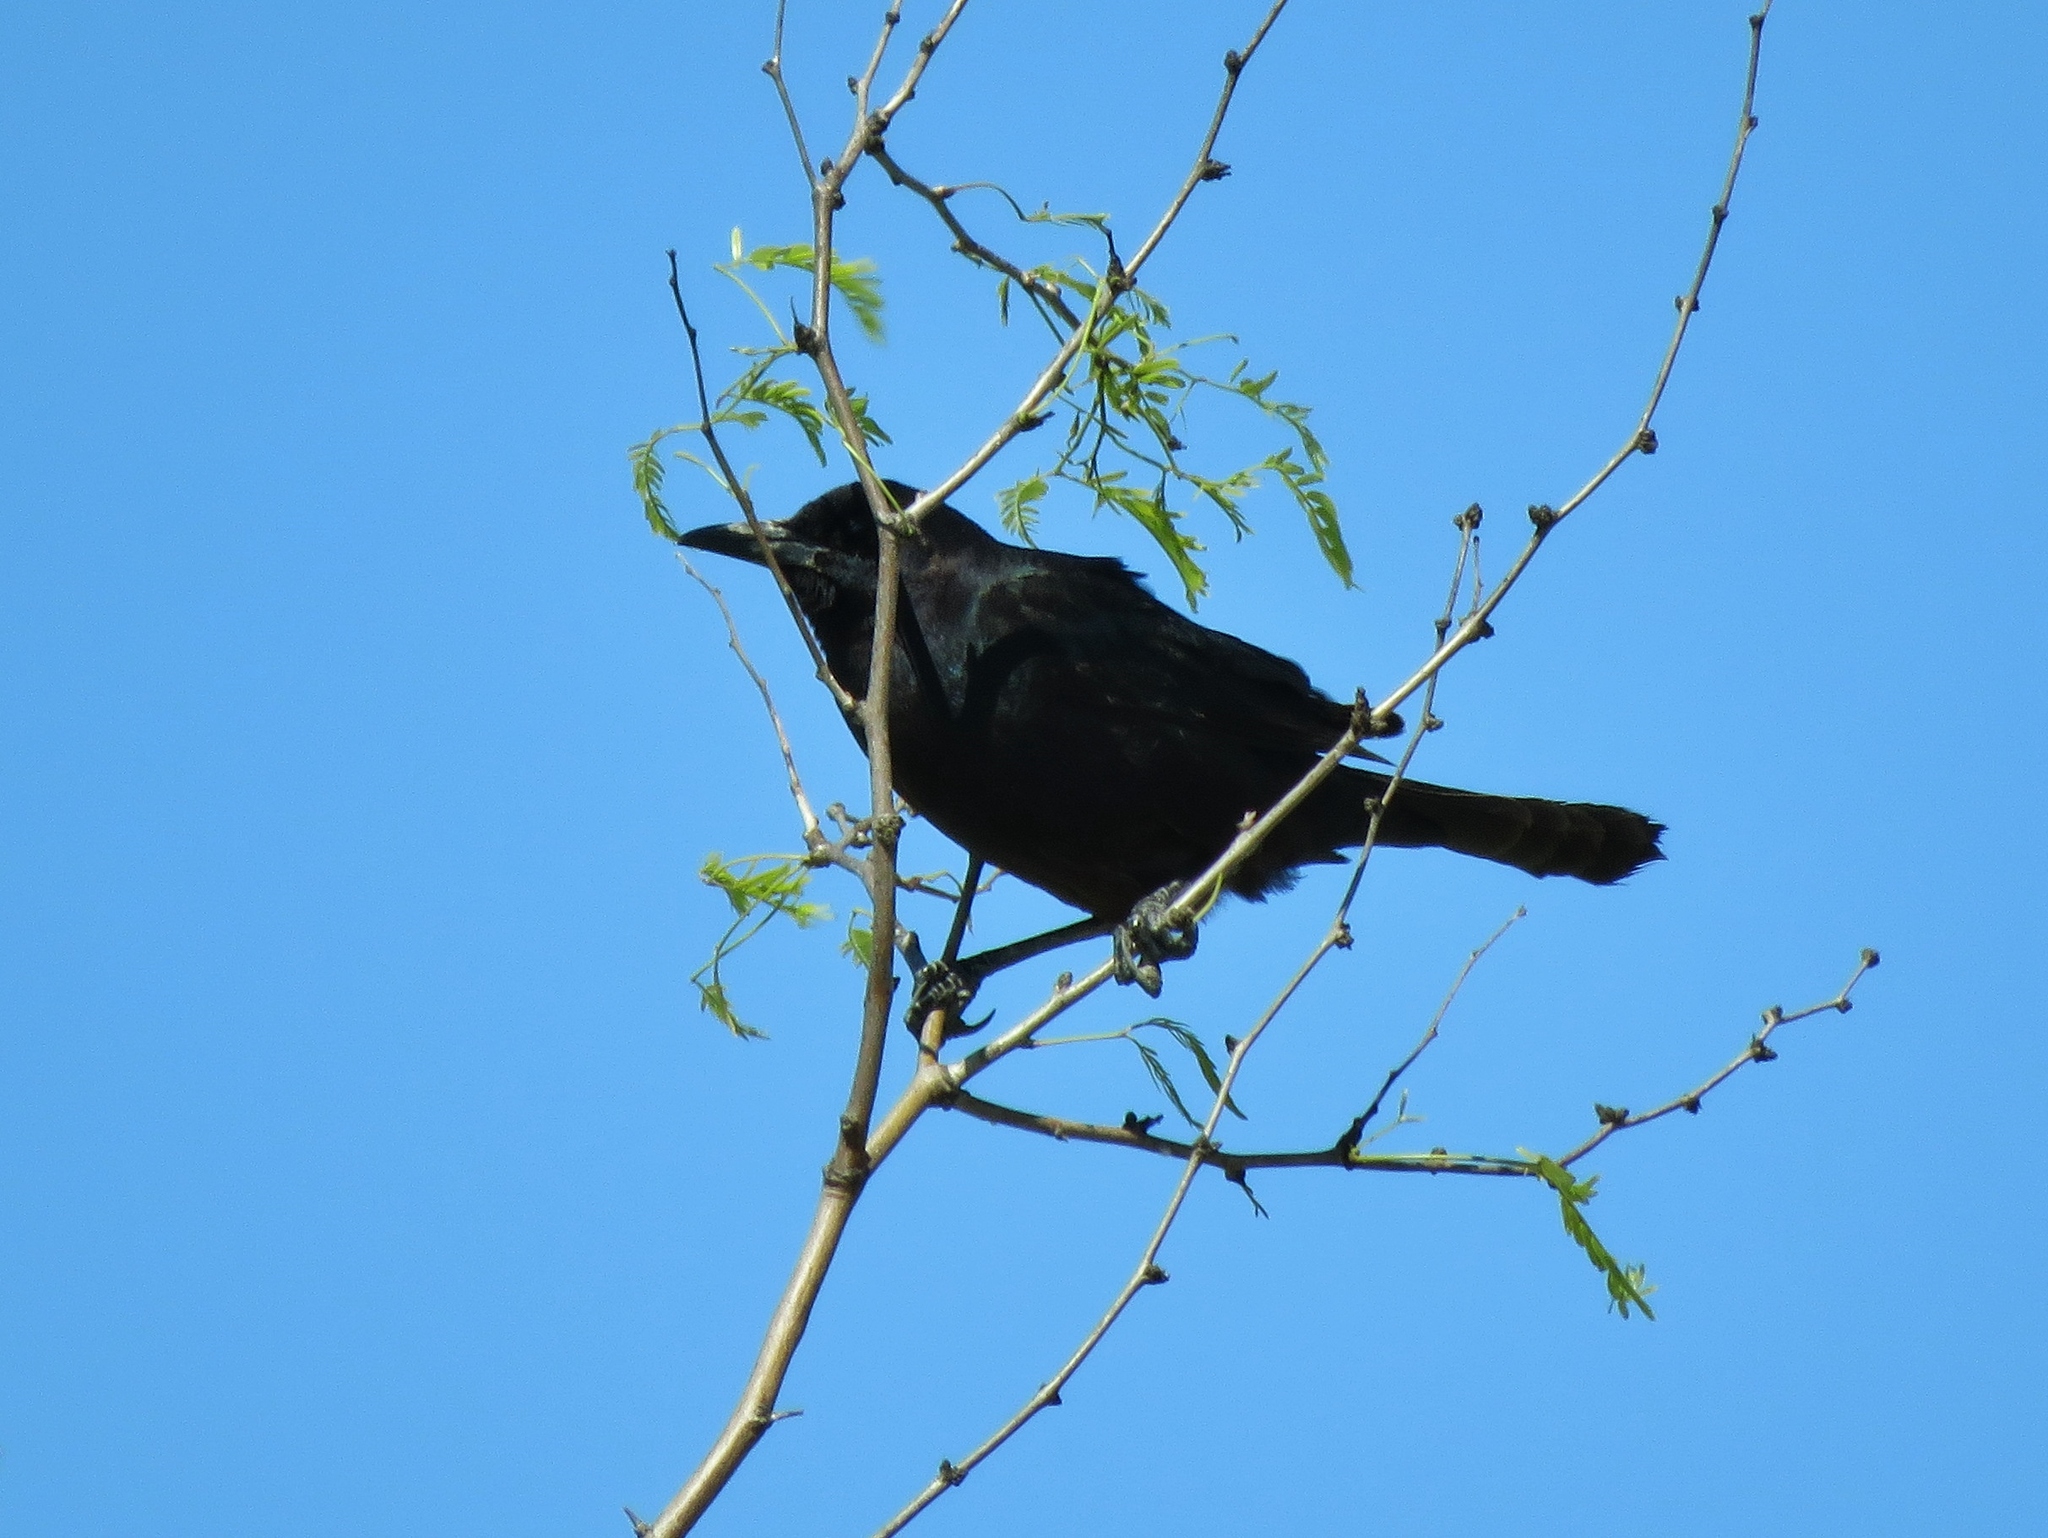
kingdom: Animalia
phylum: Chordata
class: Aves
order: Passeriformes
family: Icteridae
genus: Quiscalus
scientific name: Quiscalus major
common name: Boat-tailed grackle
